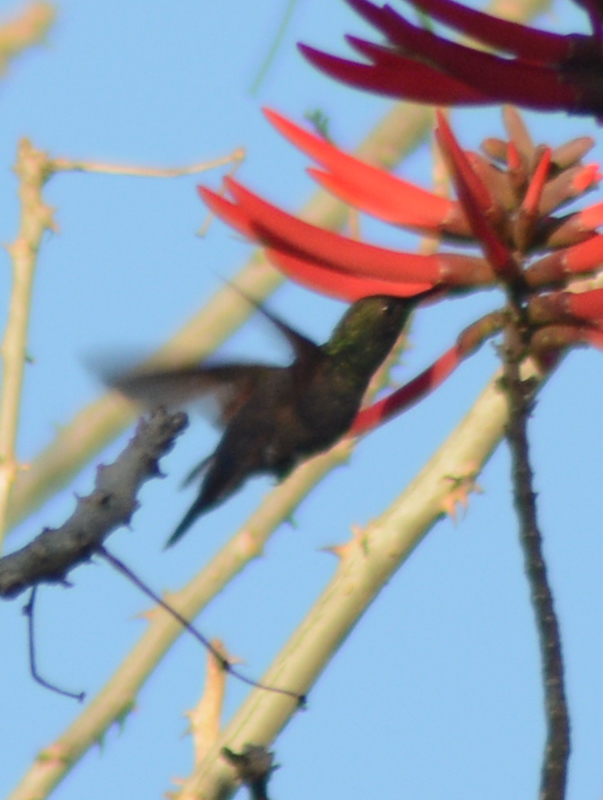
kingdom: Animalia
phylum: Chordata
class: Aves
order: Apodiformes
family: Trochilidae
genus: Saucerottia
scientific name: Saucerottia beryllina
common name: Berylline hummingbird
